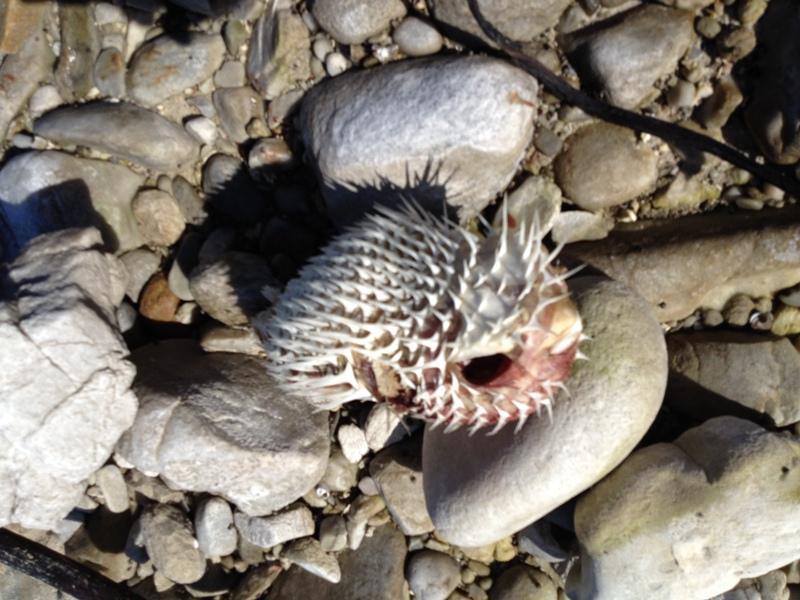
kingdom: Animalia
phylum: Chordata
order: Tetraodontiformes
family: Diodontidae
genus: Diodon
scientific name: Diodon holocanthus
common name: Balloonfish
